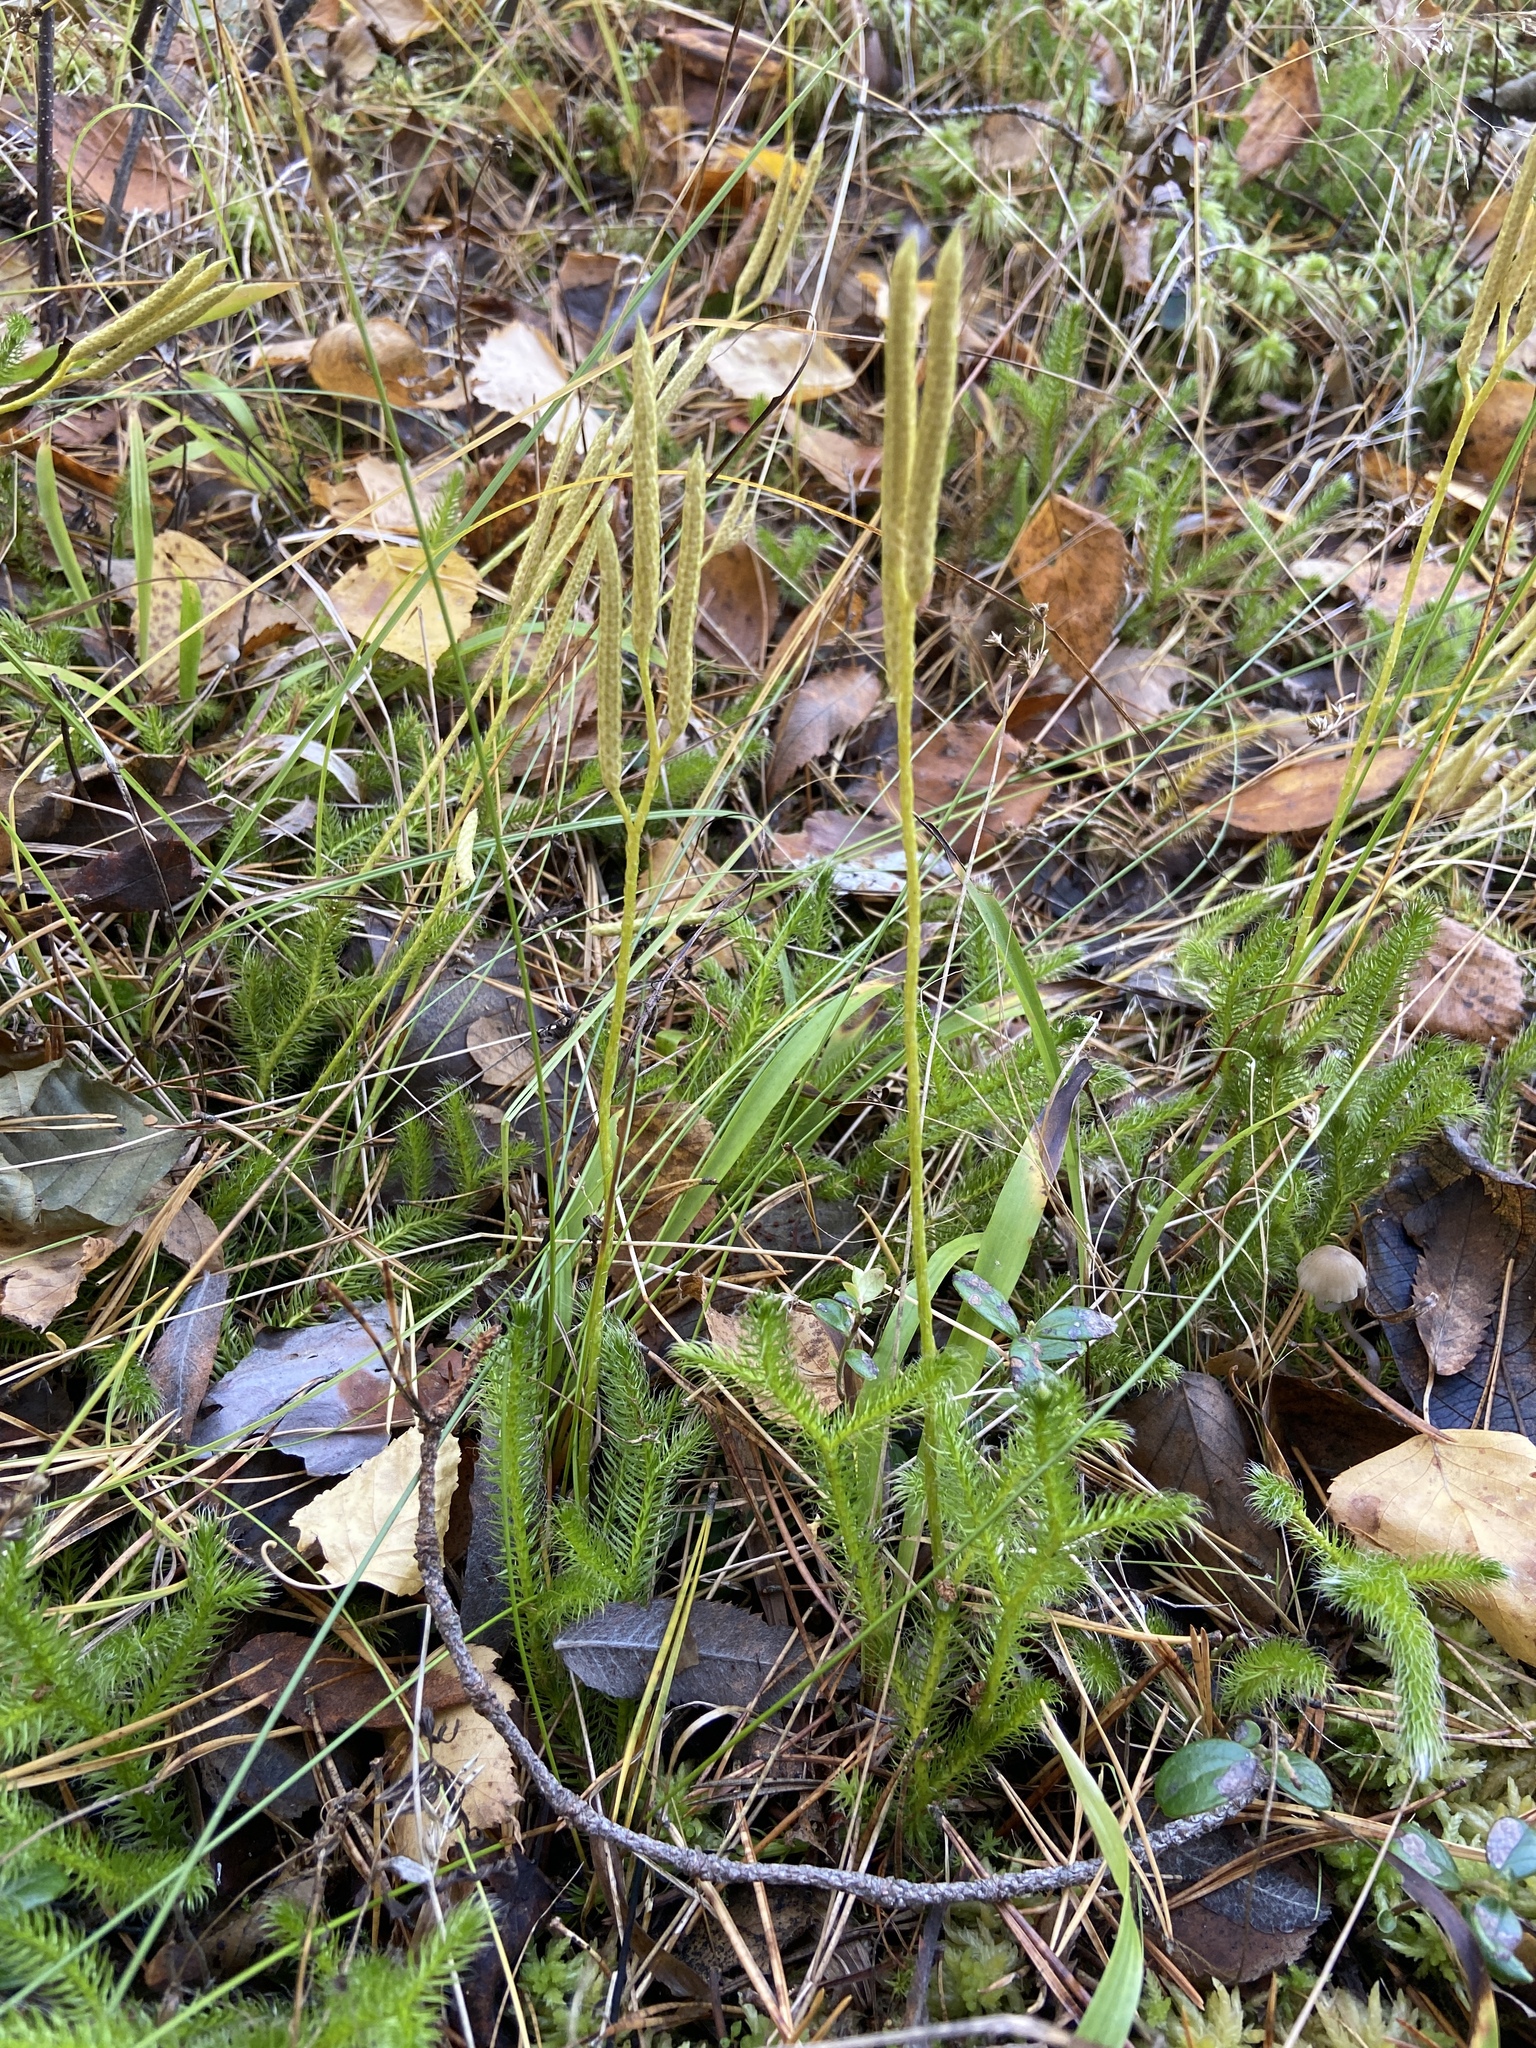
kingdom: Plantae
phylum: Tracheophyta
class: Lycopodiopsida
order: Lycopodiales
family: Lycopodiaceae
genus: Lycopodium
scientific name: Lycopodium clavatum
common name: Stag's-horn clubmoss
